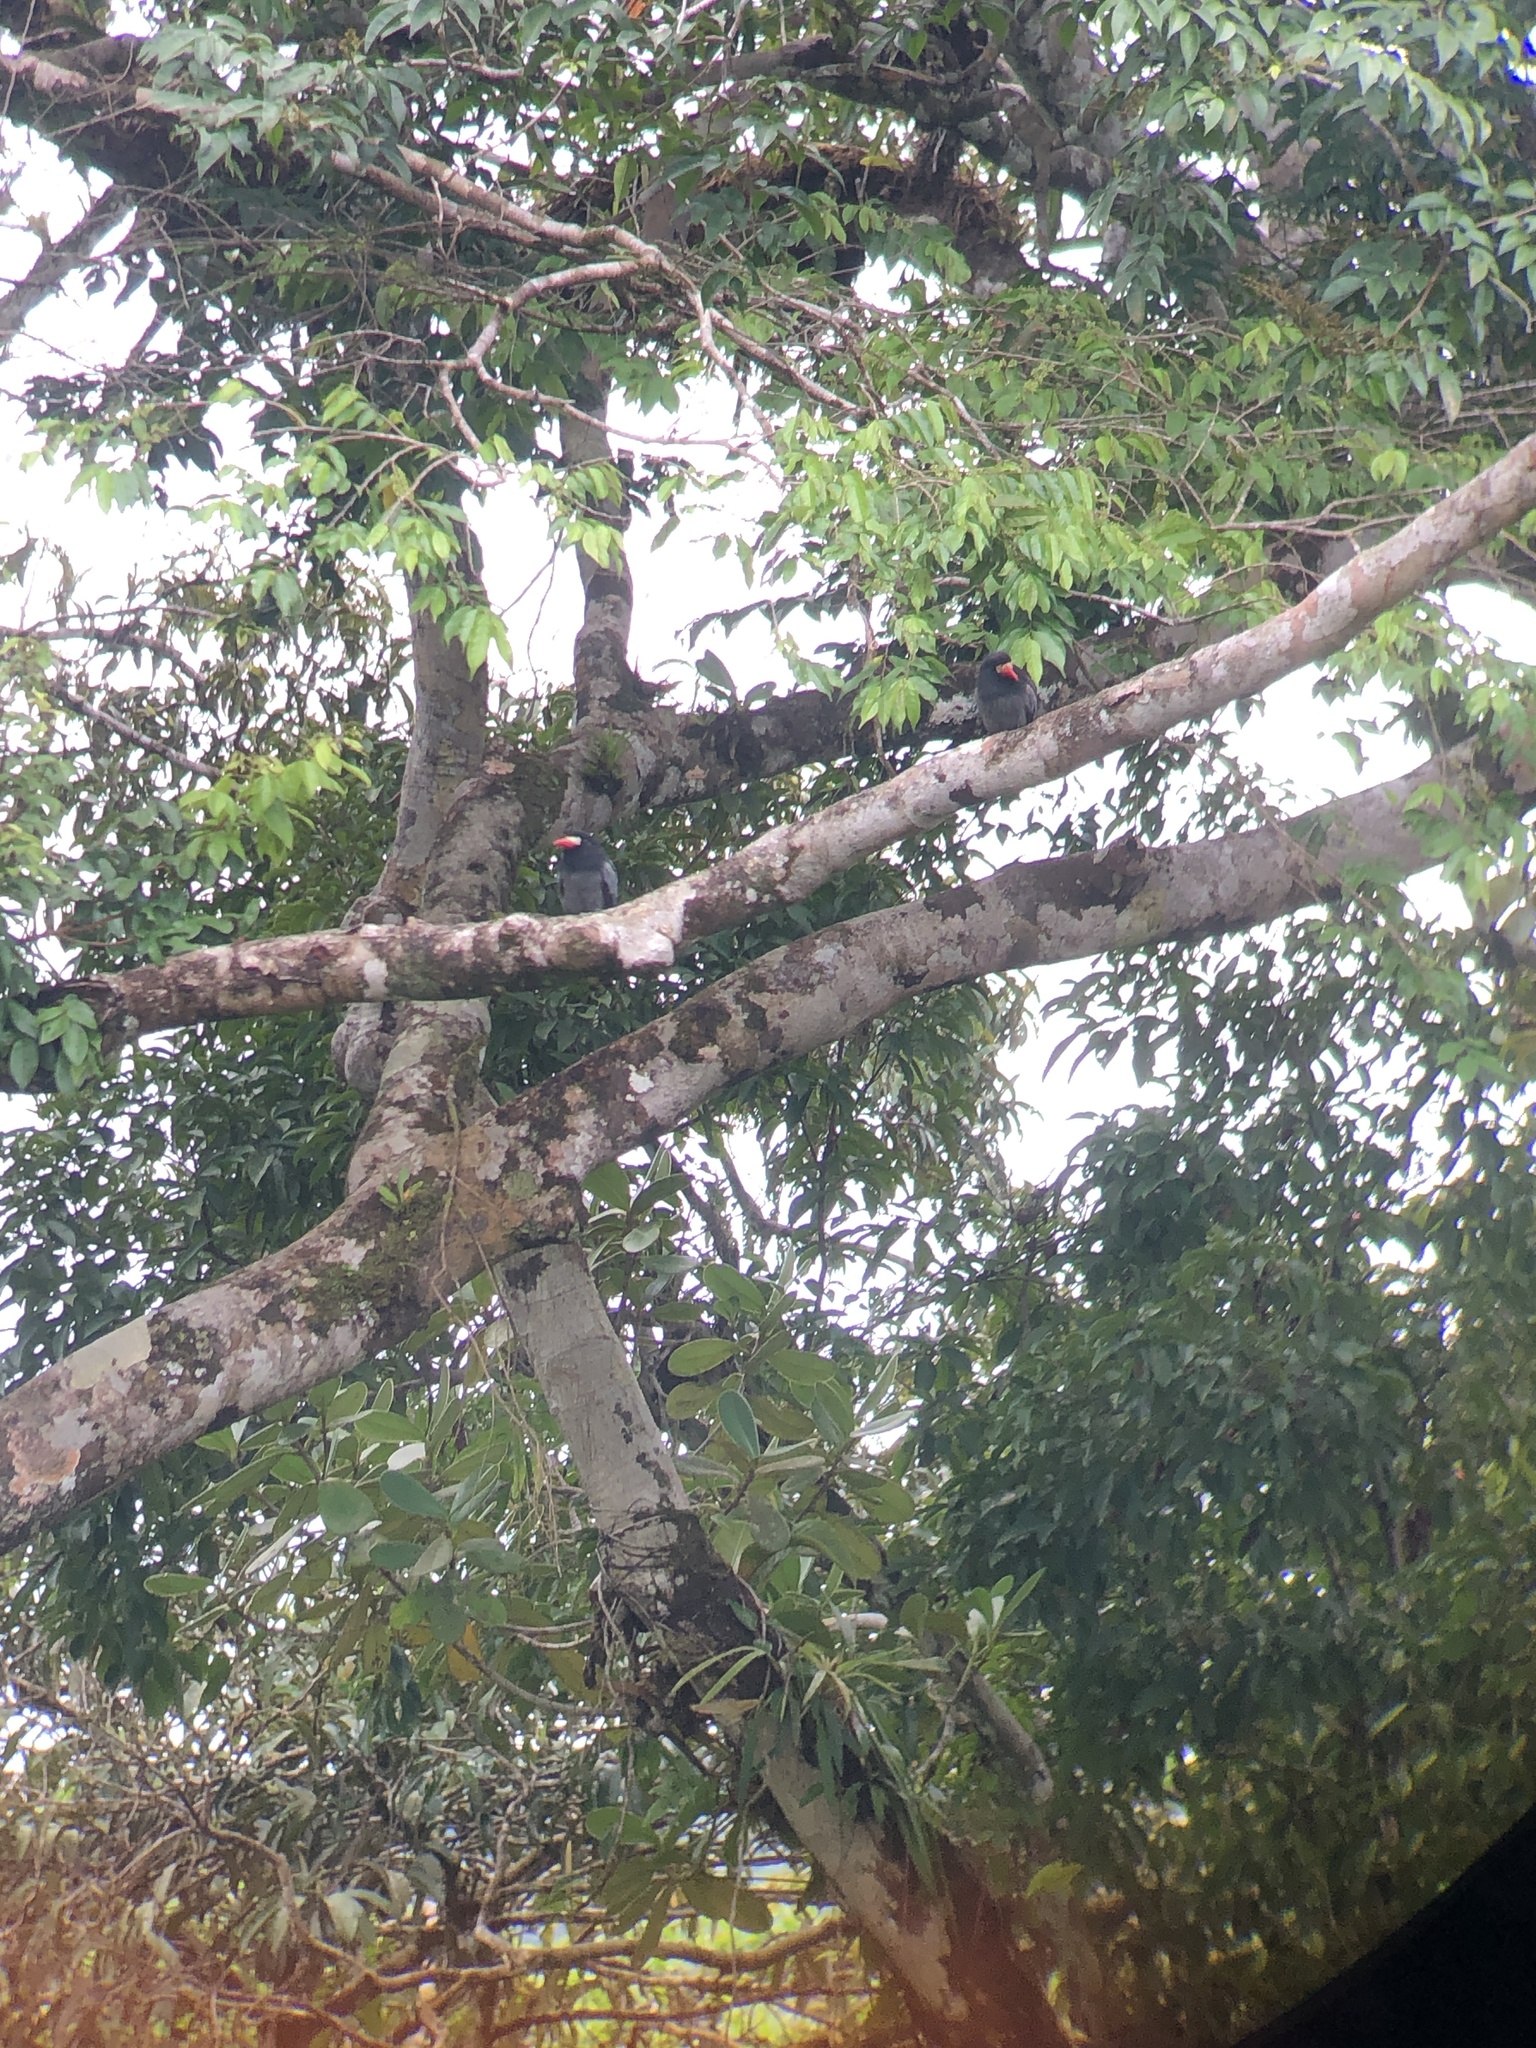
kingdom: Animalia
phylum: Chordata
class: Aves
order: Piciformes
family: Bucconidae
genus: Monasa
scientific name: Monasa morphoeus
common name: White-fronted nunbird
